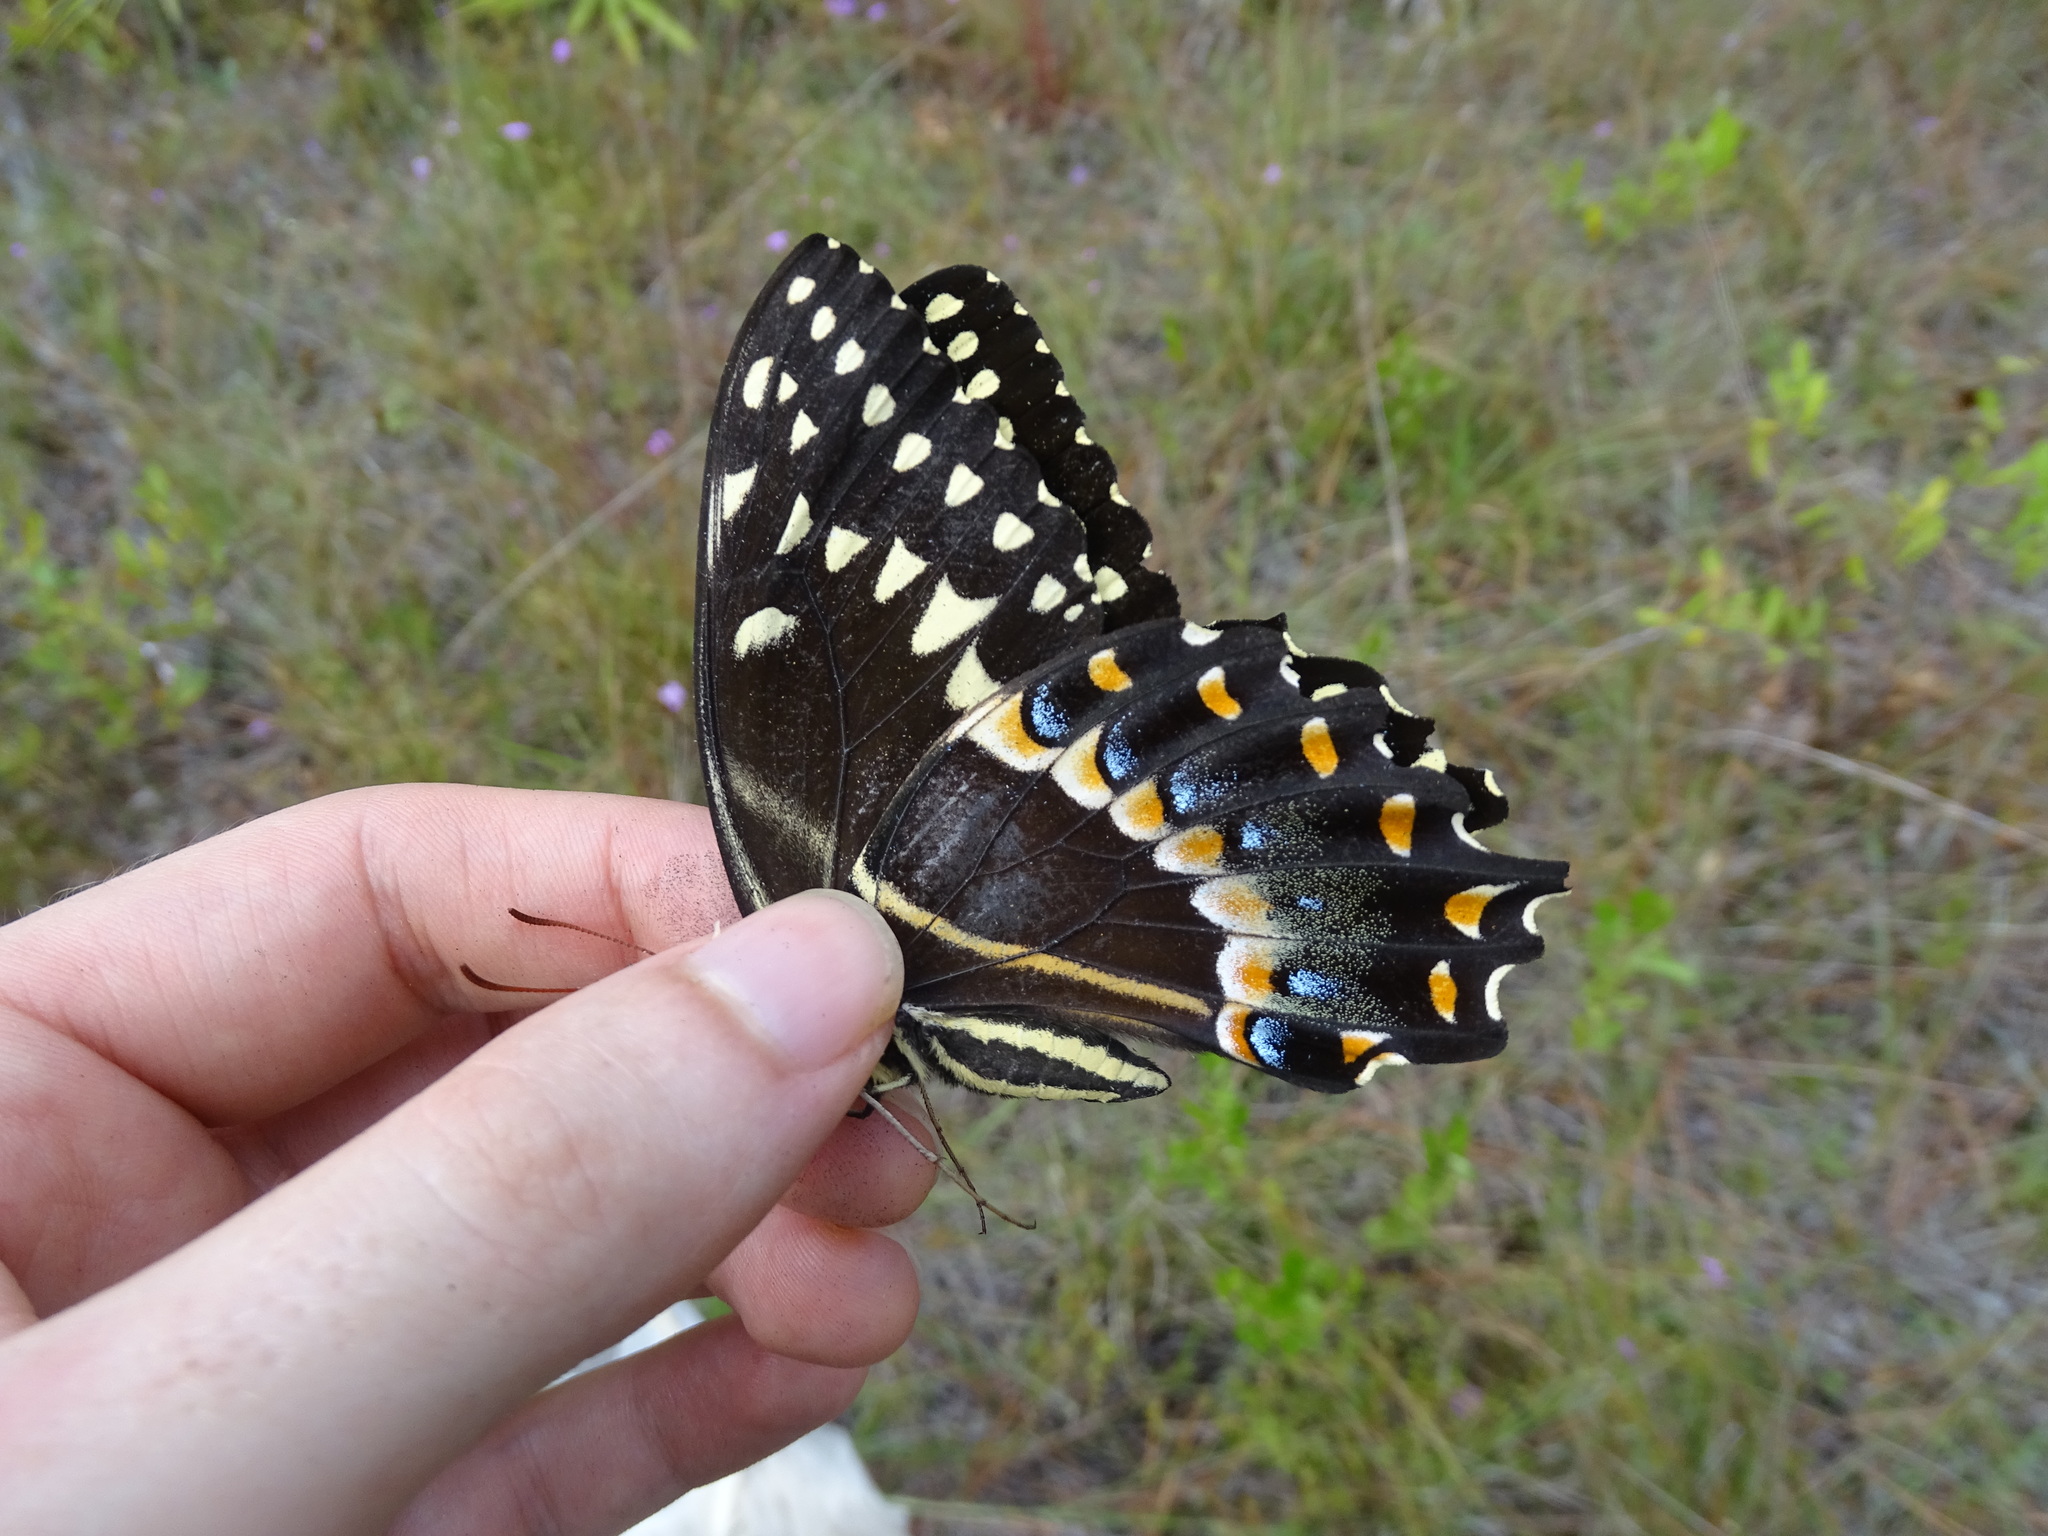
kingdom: Animalia
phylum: Arthropoda
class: Insecta
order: Lepidoptera
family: Papilionidae
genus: Papilio
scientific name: Papilio palamedes
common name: Palamedes swallowtail
